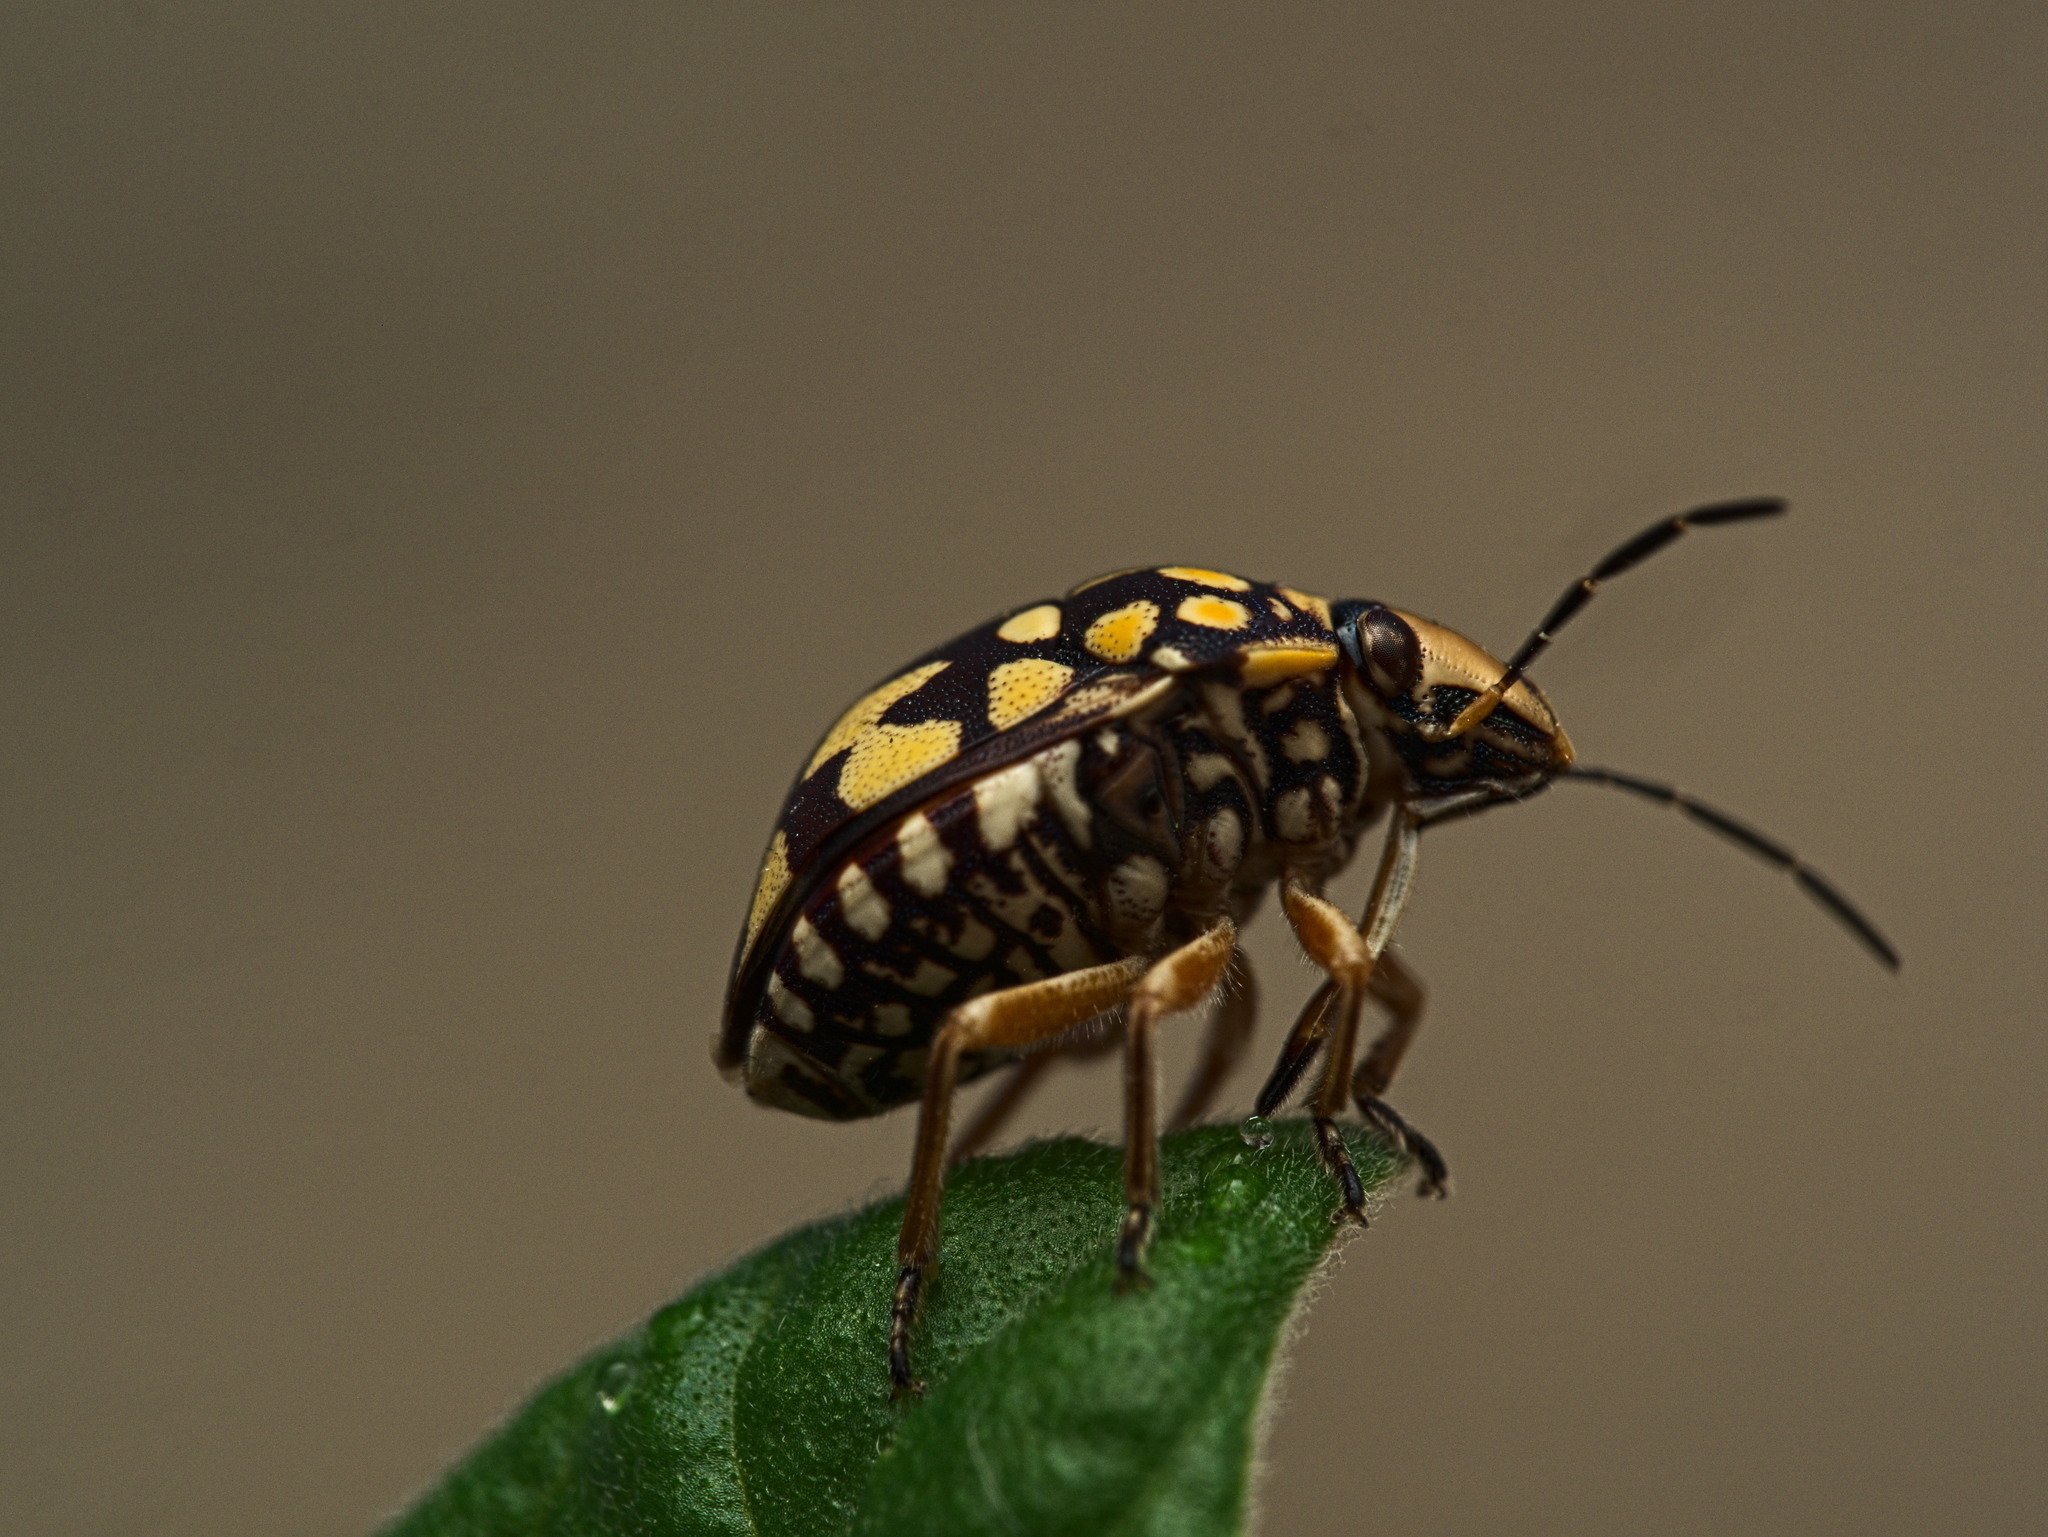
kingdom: Animalia
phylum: Arthropoda
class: Insecta
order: Hemiptera
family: Scutelleridae
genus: Orsilochides
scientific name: Orsilochides
